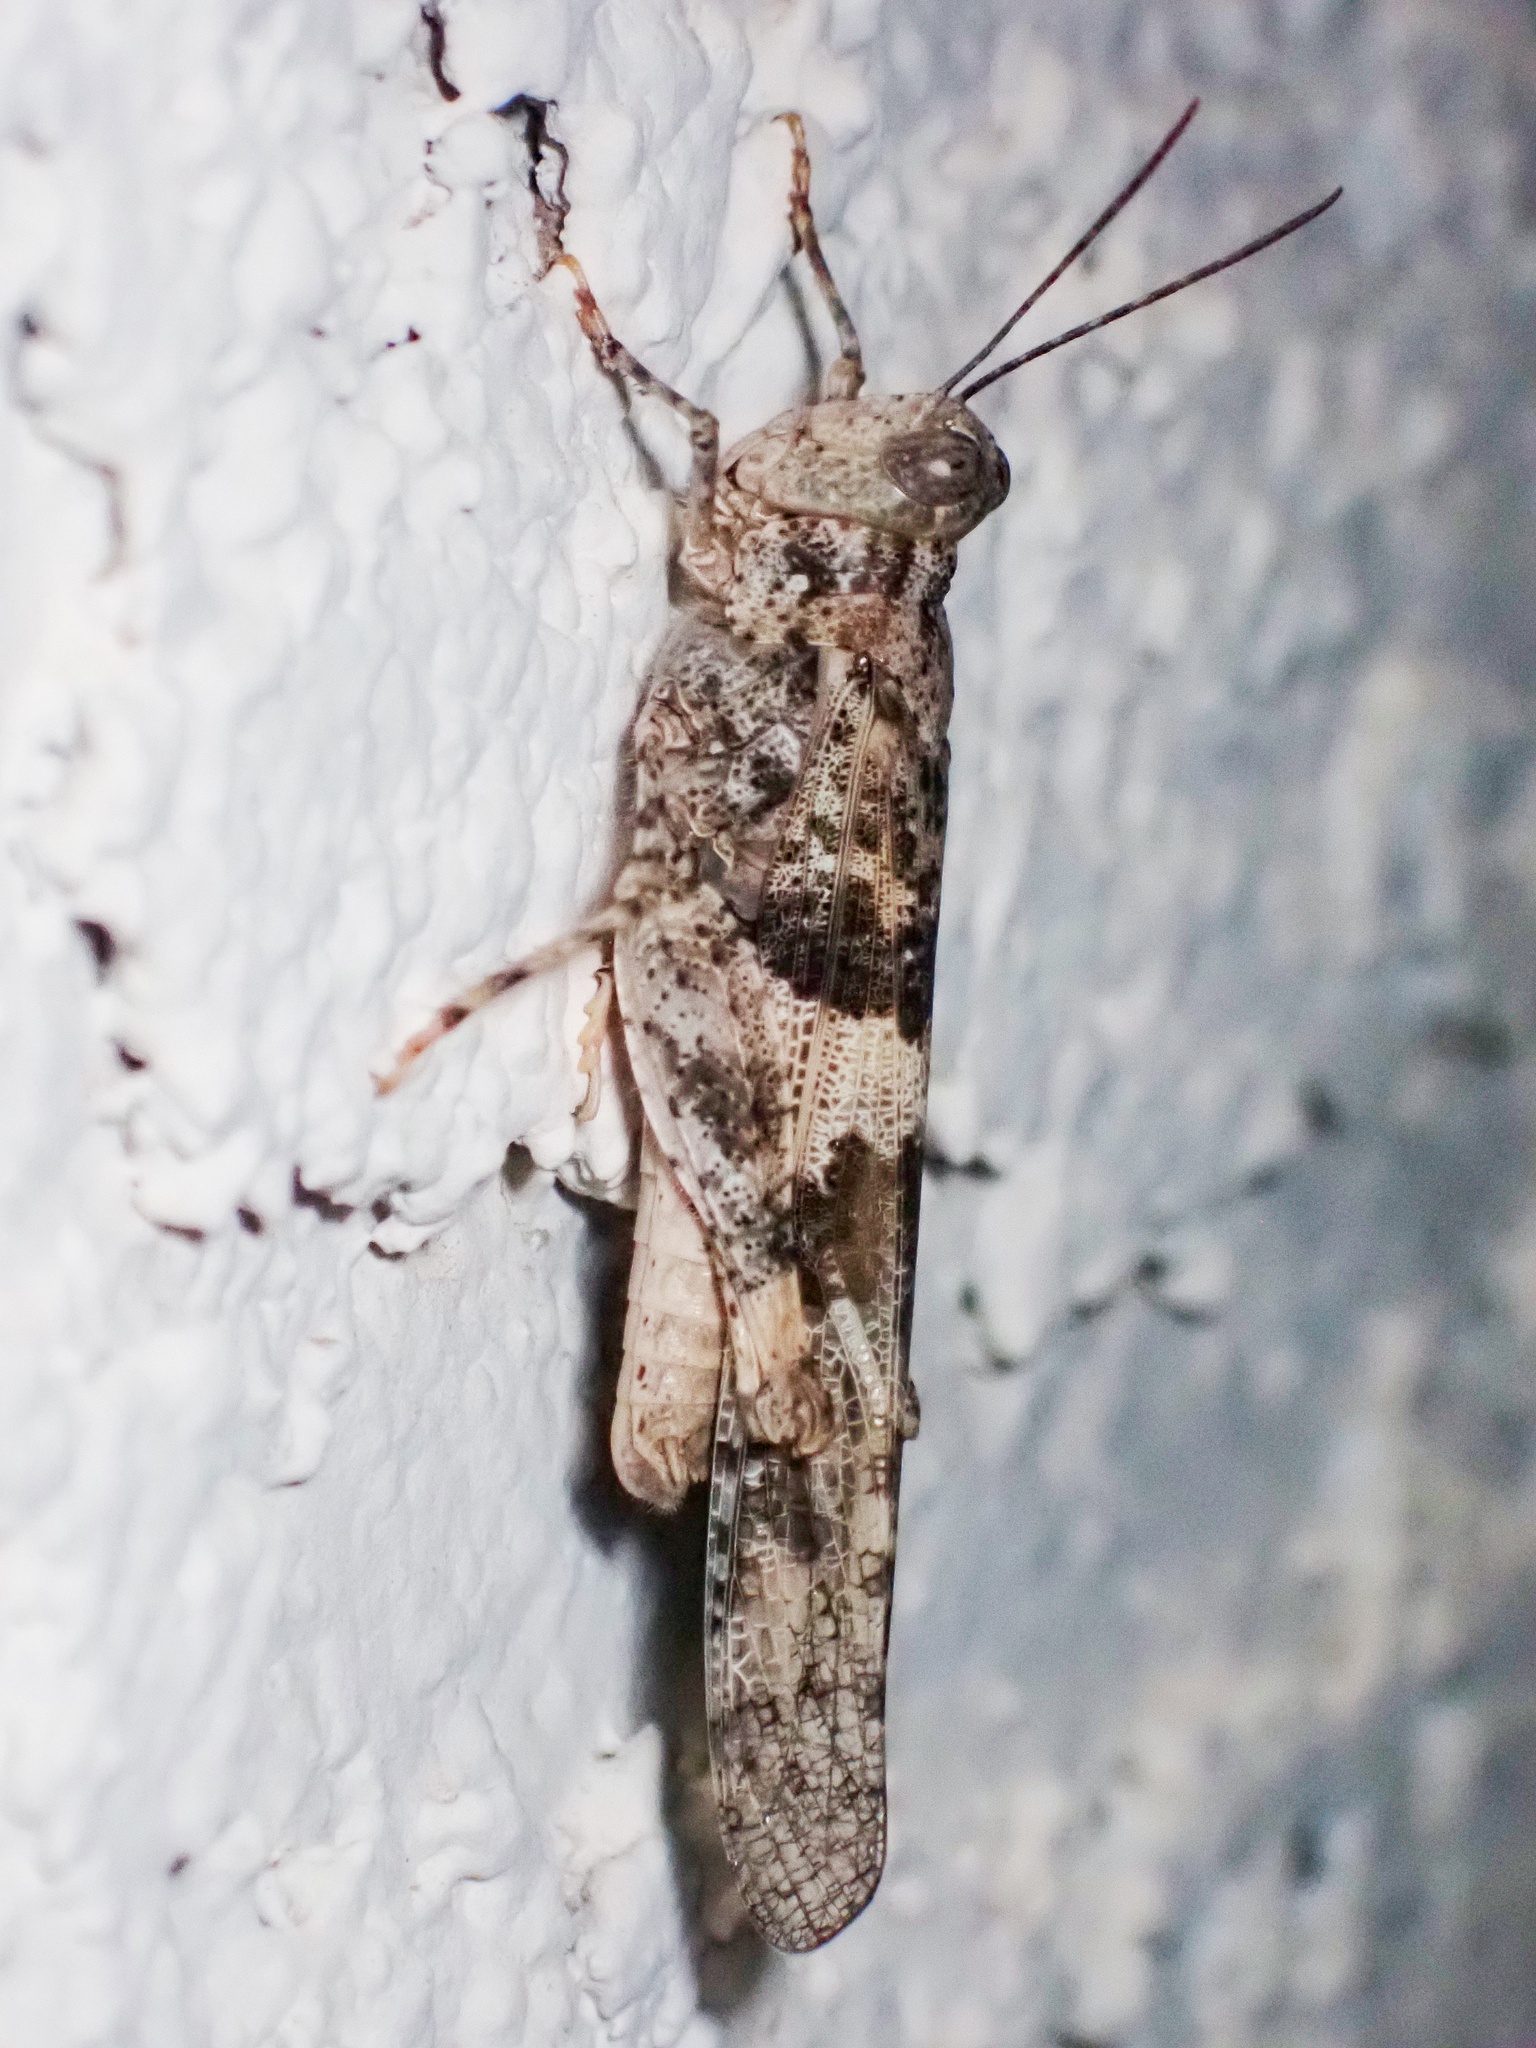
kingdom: Animalia
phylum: Arthropoda
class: Insecta
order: Orthoptera
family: Acrididae
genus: Trimerotropis
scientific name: Trimerotropis pallidipennis
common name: Pallid-winged grasshopper
